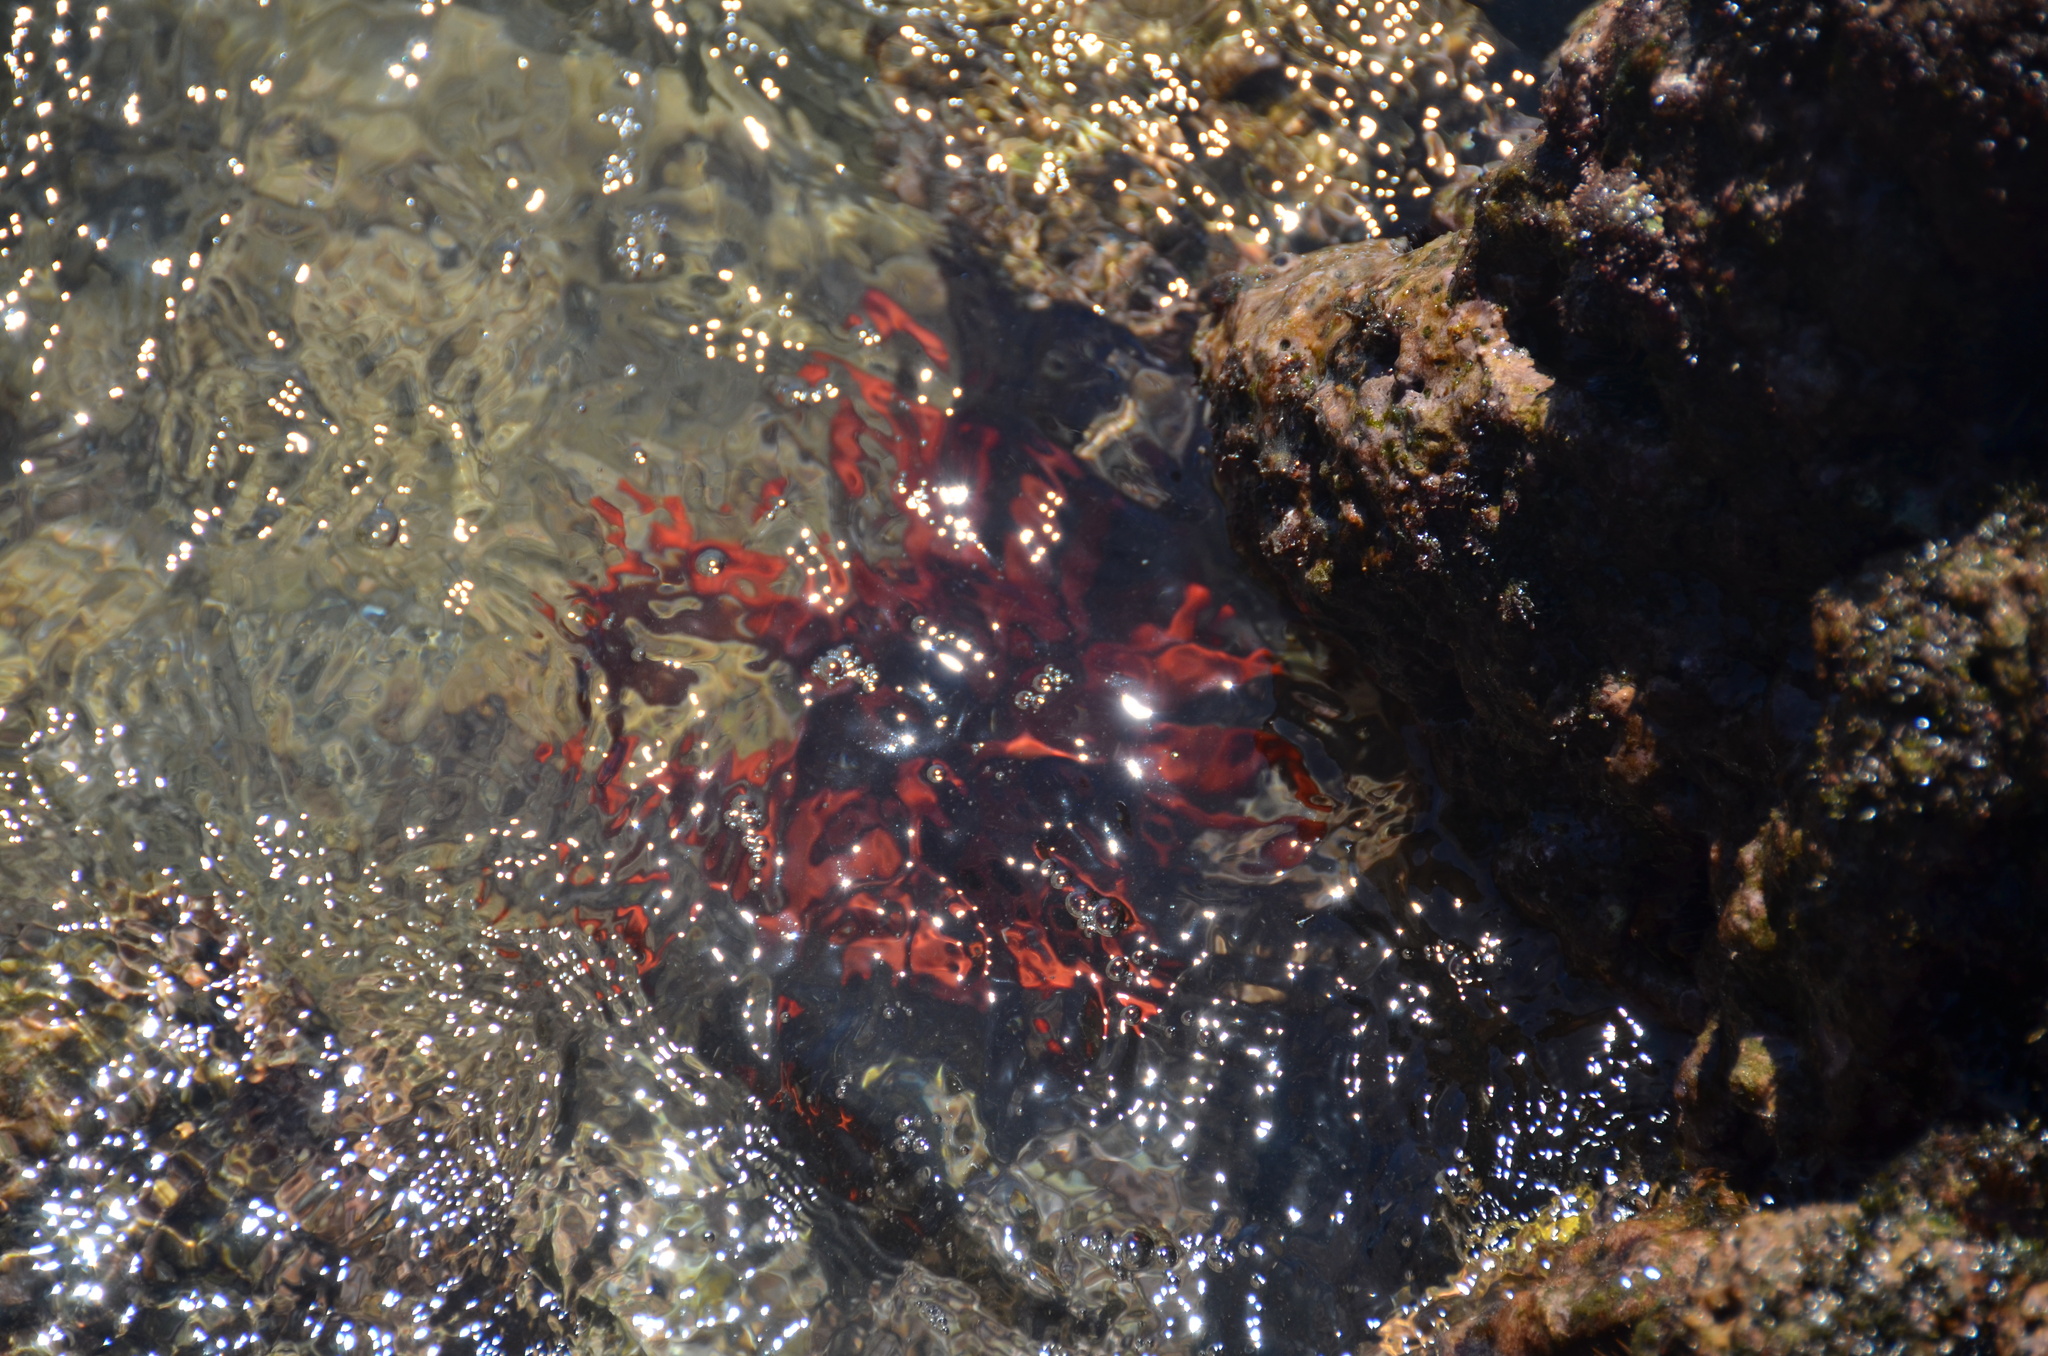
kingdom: Animalia
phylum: Echinodermata
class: Echinoidea
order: Camarodonta
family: Echinometridae
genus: Heterocentrotus
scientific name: Heterocentrotus mamillatus
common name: Slate pencil urchin
